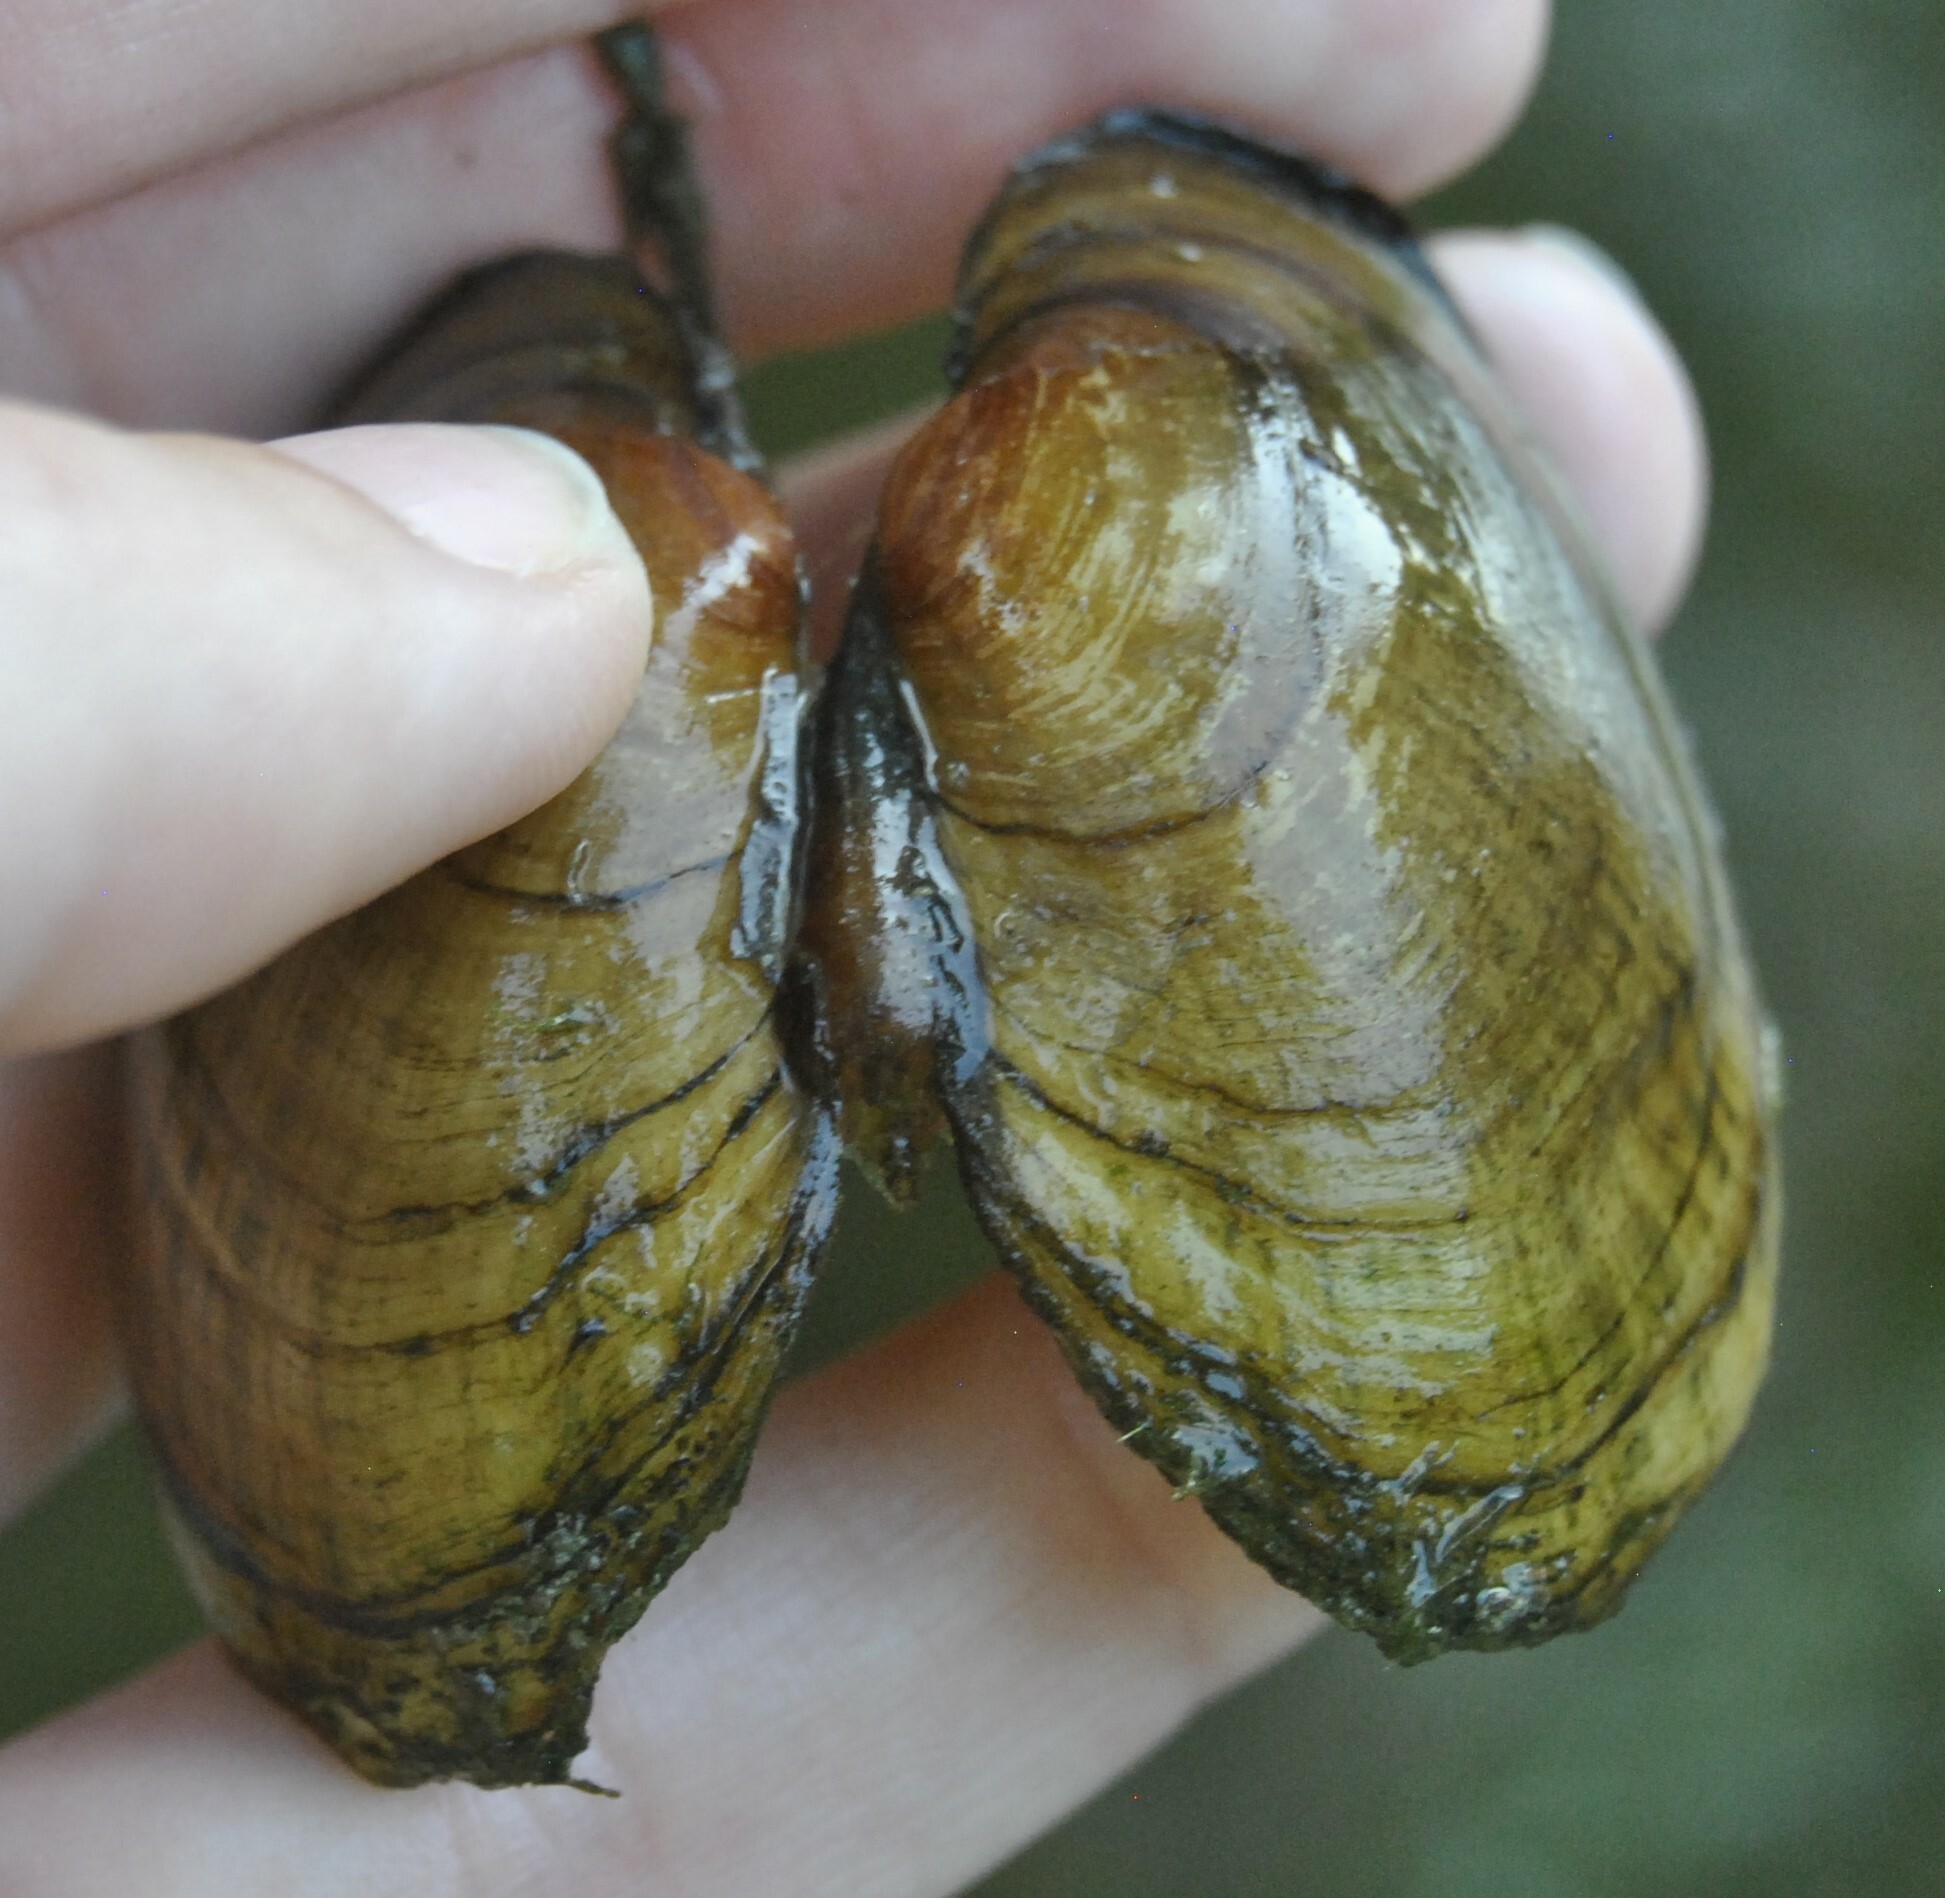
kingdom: Animalia
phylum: Mollusca
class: Bivalvia
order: Unionida
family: Unionidae
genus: Lampsilis
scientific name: Lampsilis fasciola
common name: Wavyrayed lampmussel
